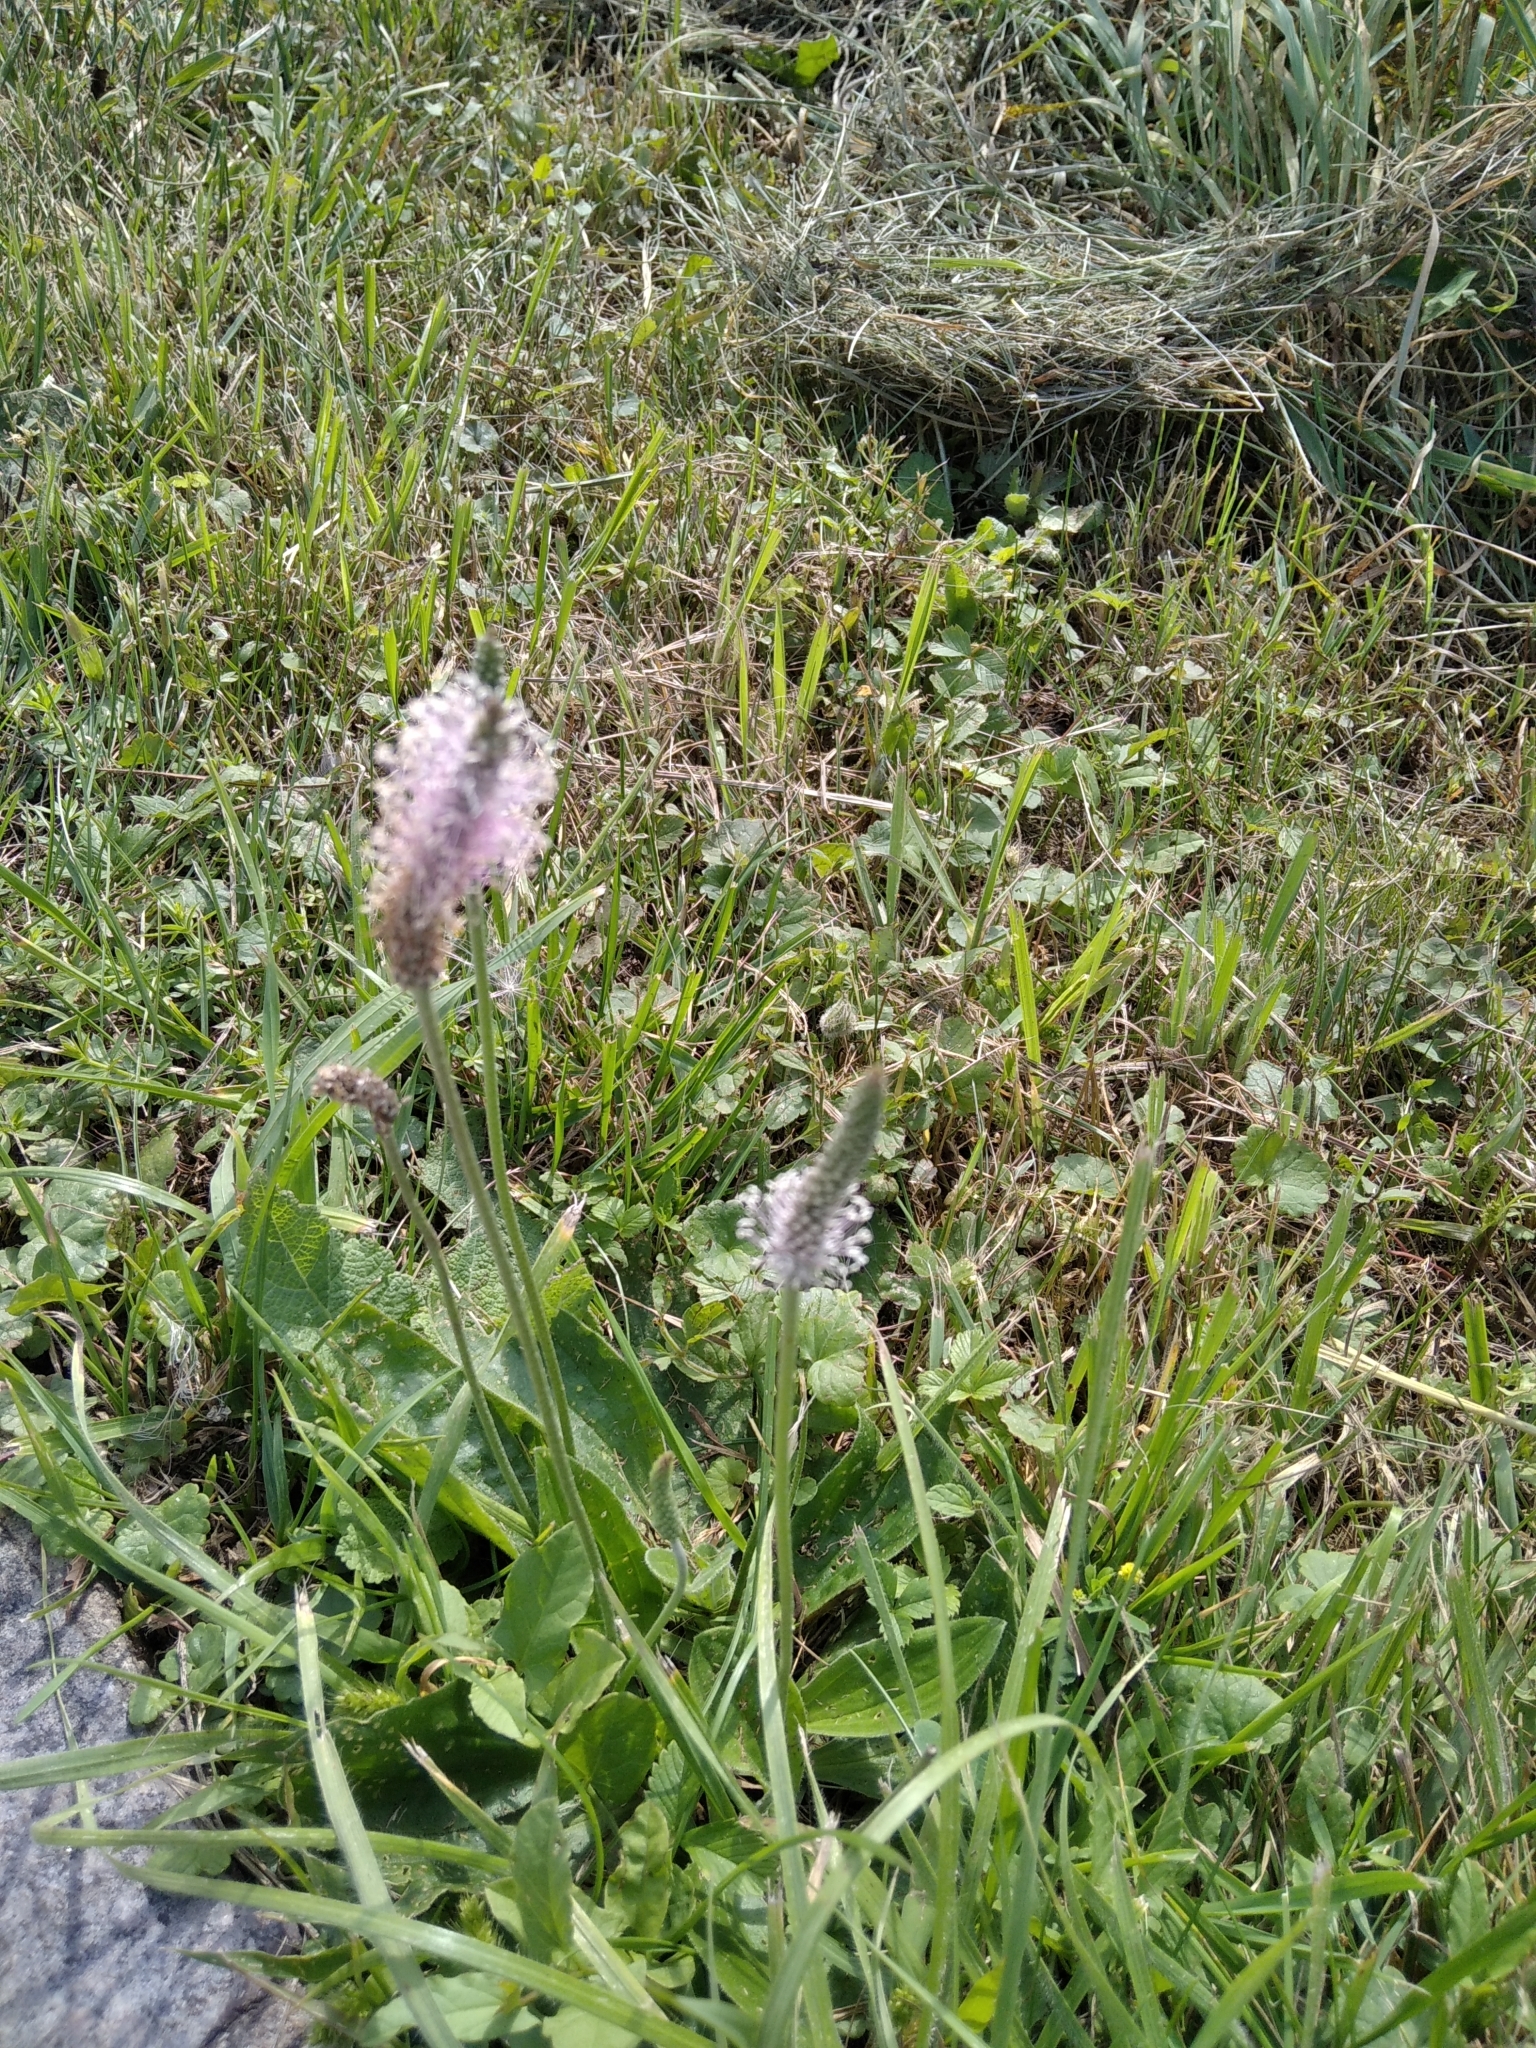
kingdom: Plantae
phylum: Tracheophyta
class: Magnoliopsida
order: Lamiales
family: Plantaginaceae
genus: Plantago
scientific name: Plantago media
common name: Hoary plantain
